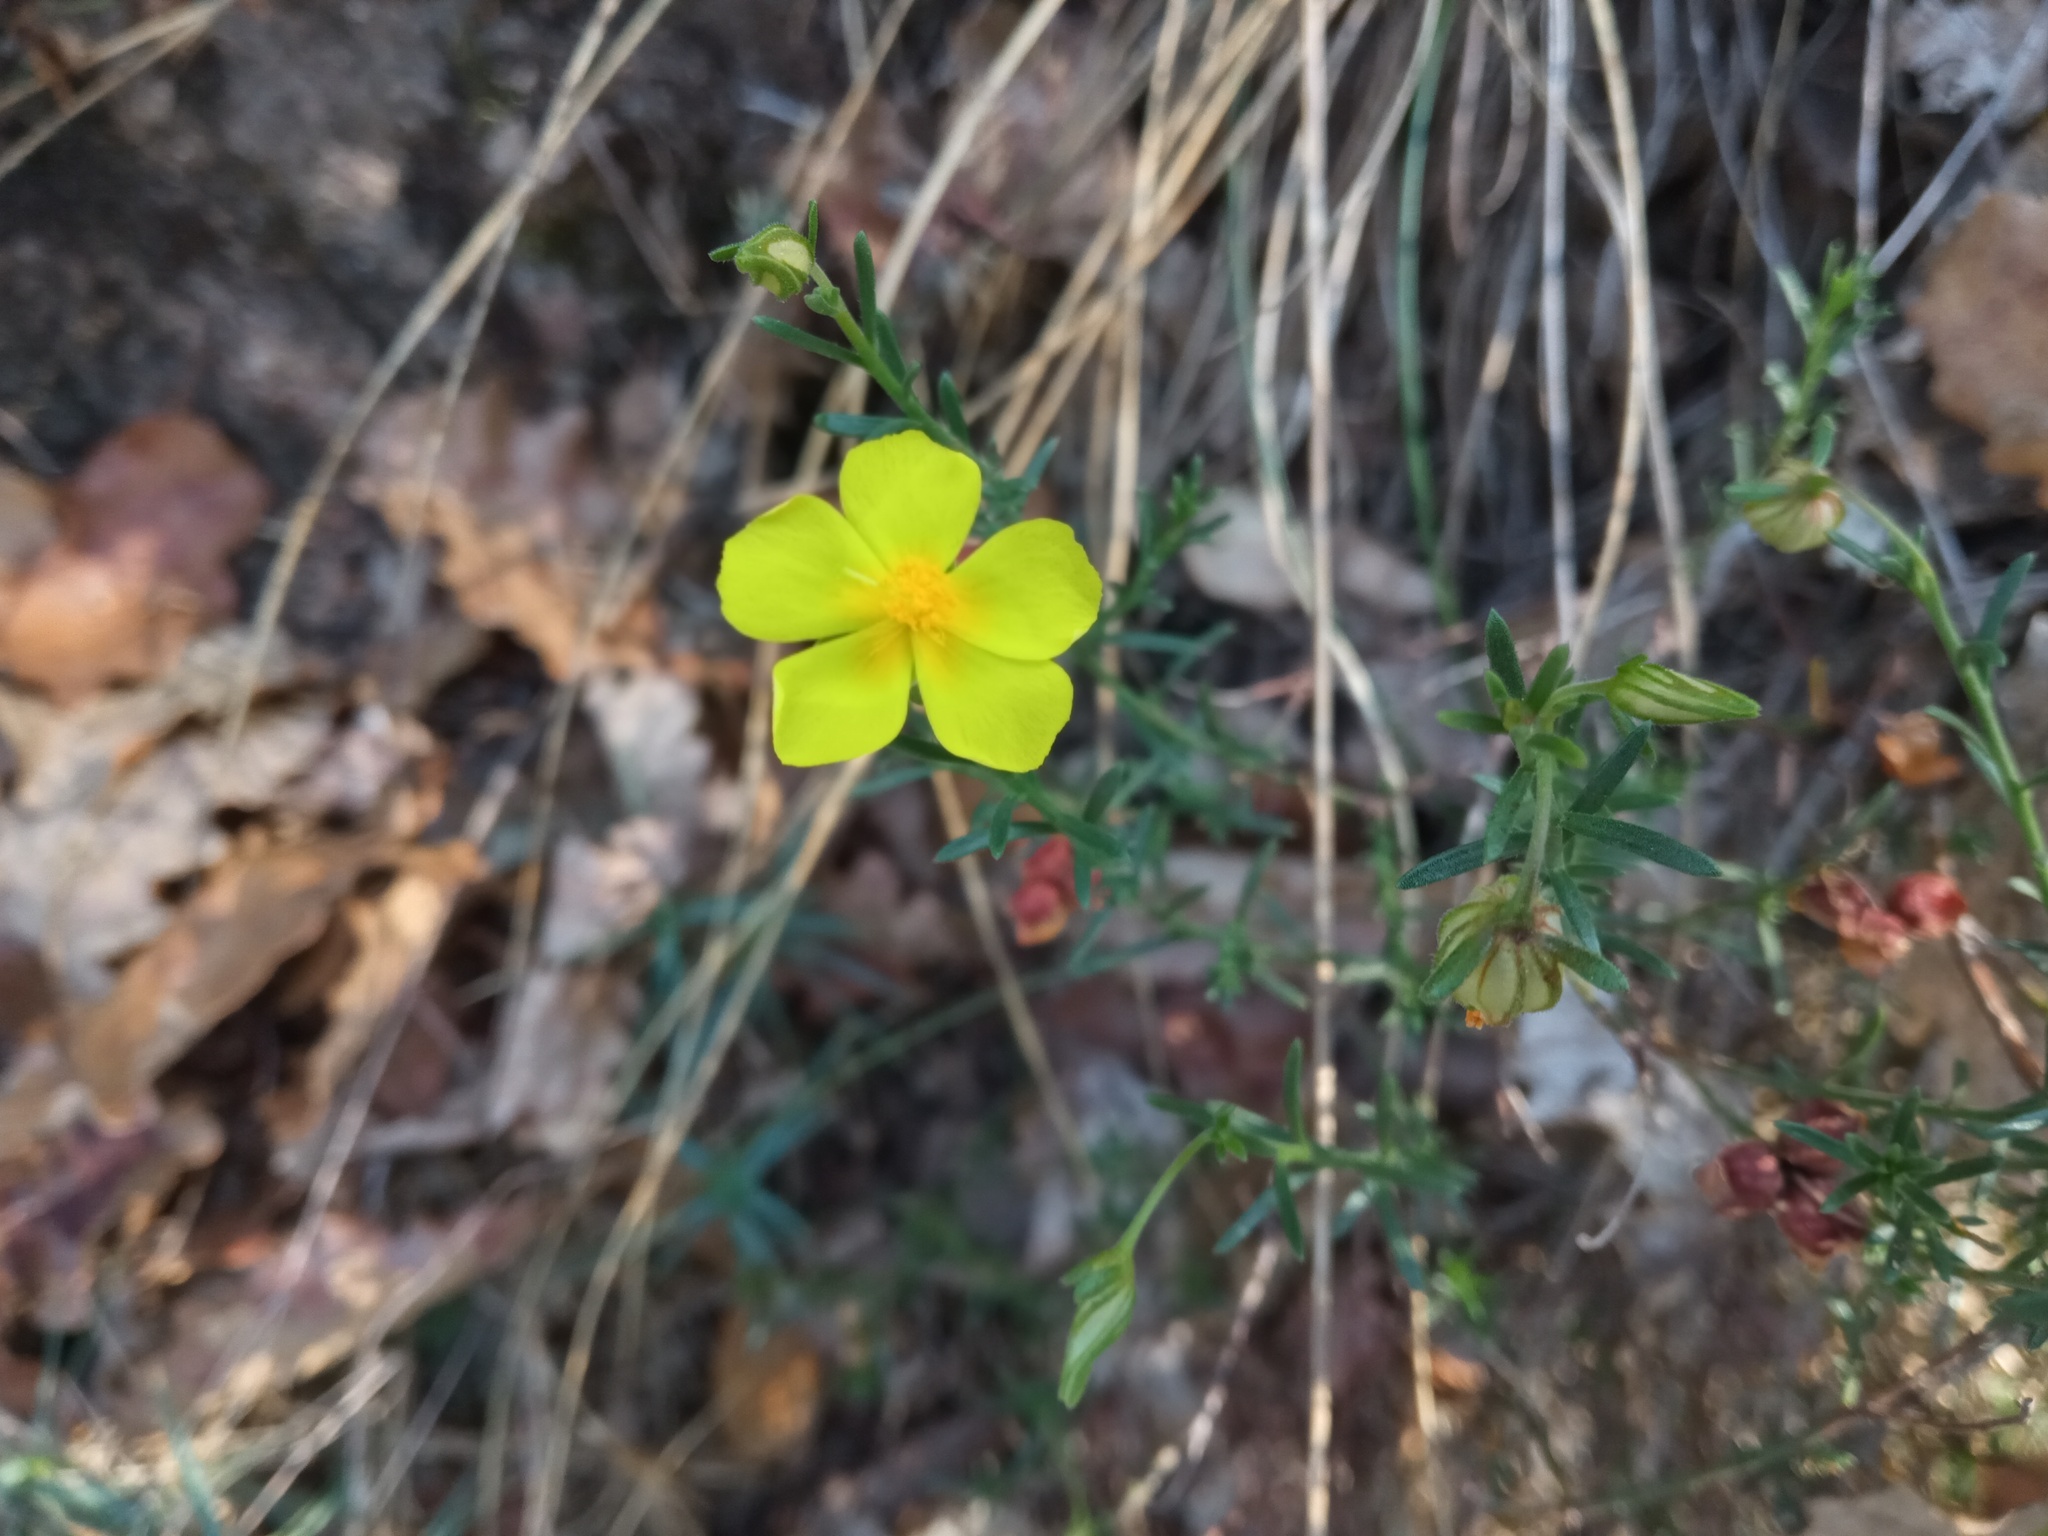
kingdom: Plantae
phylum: Tracheophyta
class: Magnoliopsida
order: Malvales
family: Cistaceae
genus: Fumana
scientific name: Fumana ericifolia
